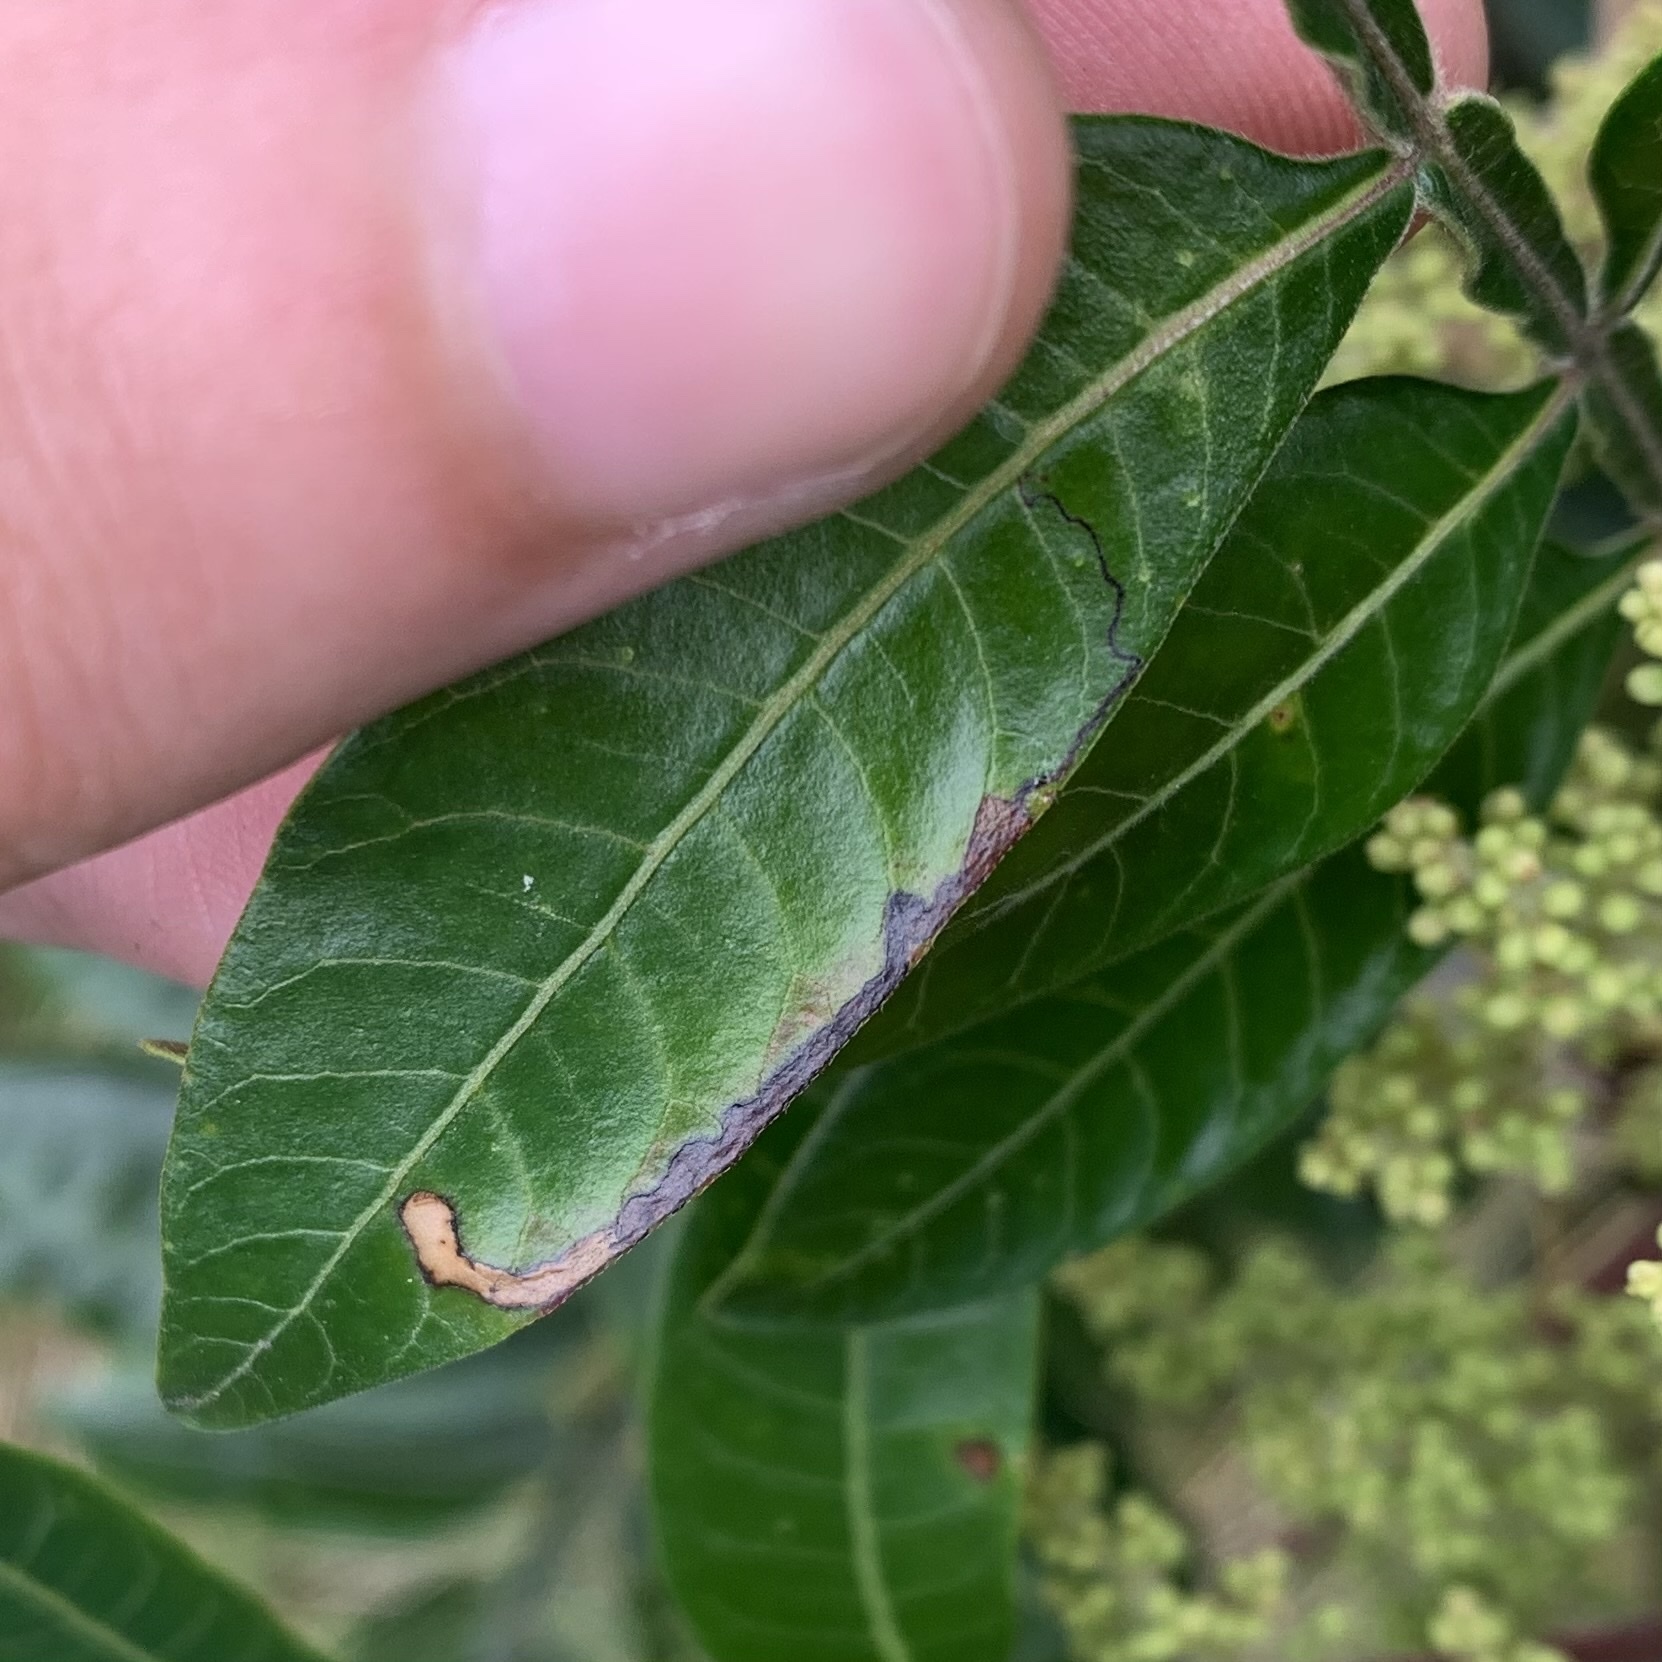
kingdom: Animalia
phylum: Arthropoda
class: Insecta
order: Lepidoptera
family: Nepticulidae
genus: Stigmella
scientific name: Stigmella intermedia
